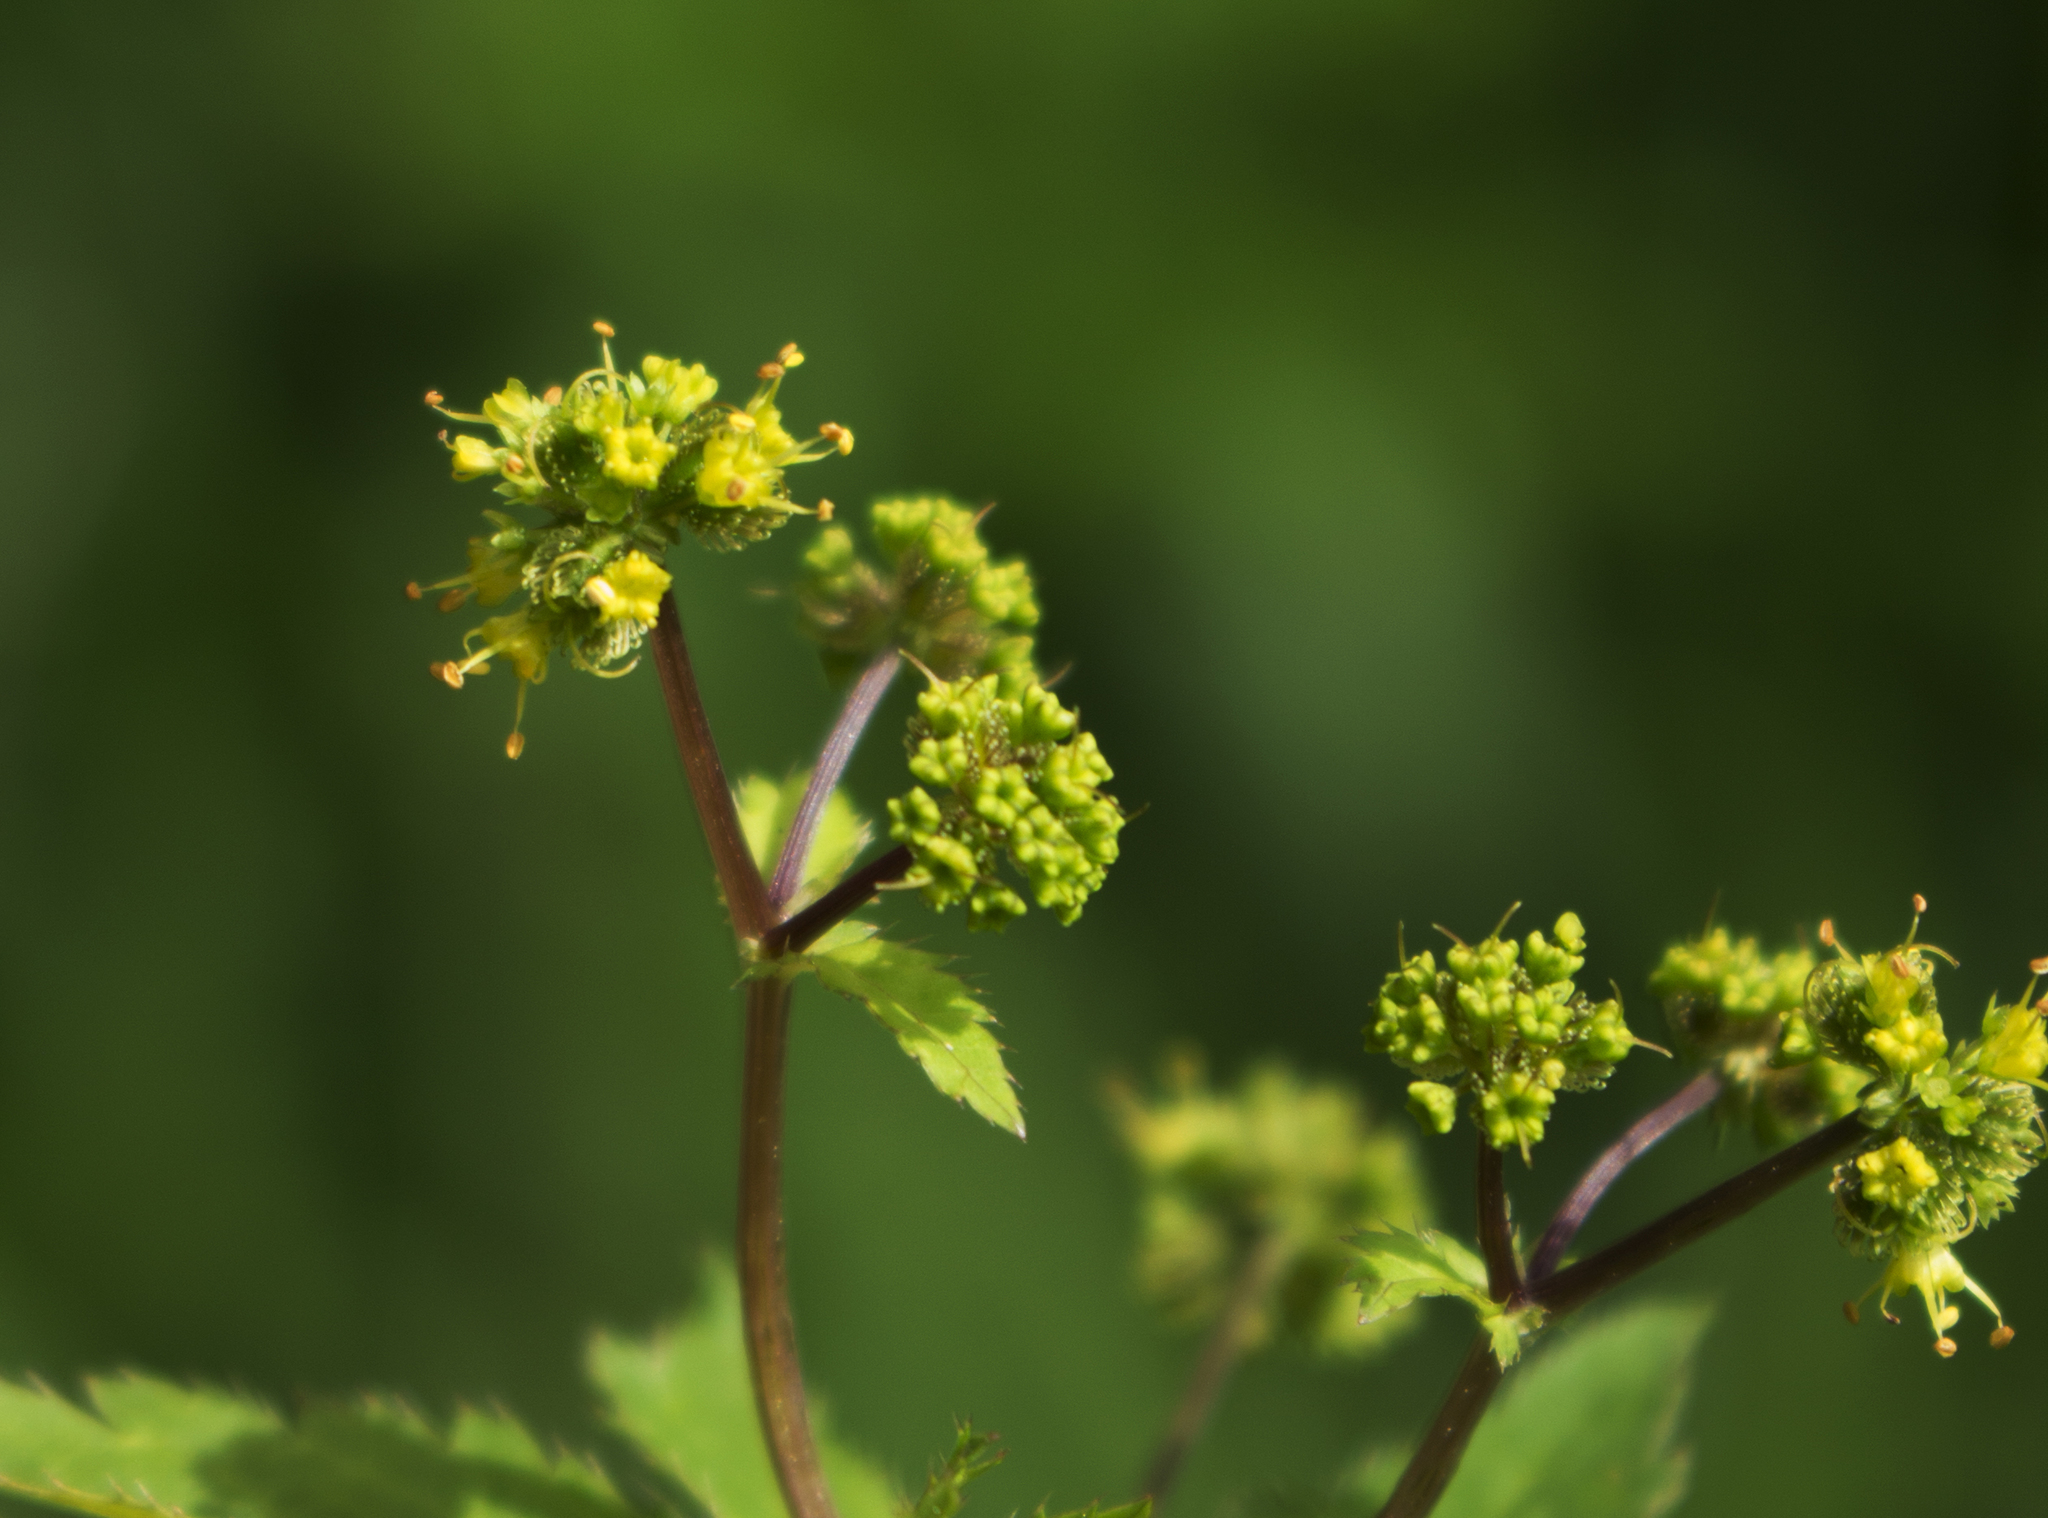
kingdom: Plantae
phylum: Tracheophyta
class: Magnoliopsida
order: Apiales
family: Apiaceae
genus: Sanicula
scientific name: Sanicula odorata
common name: Cluster sanicle
